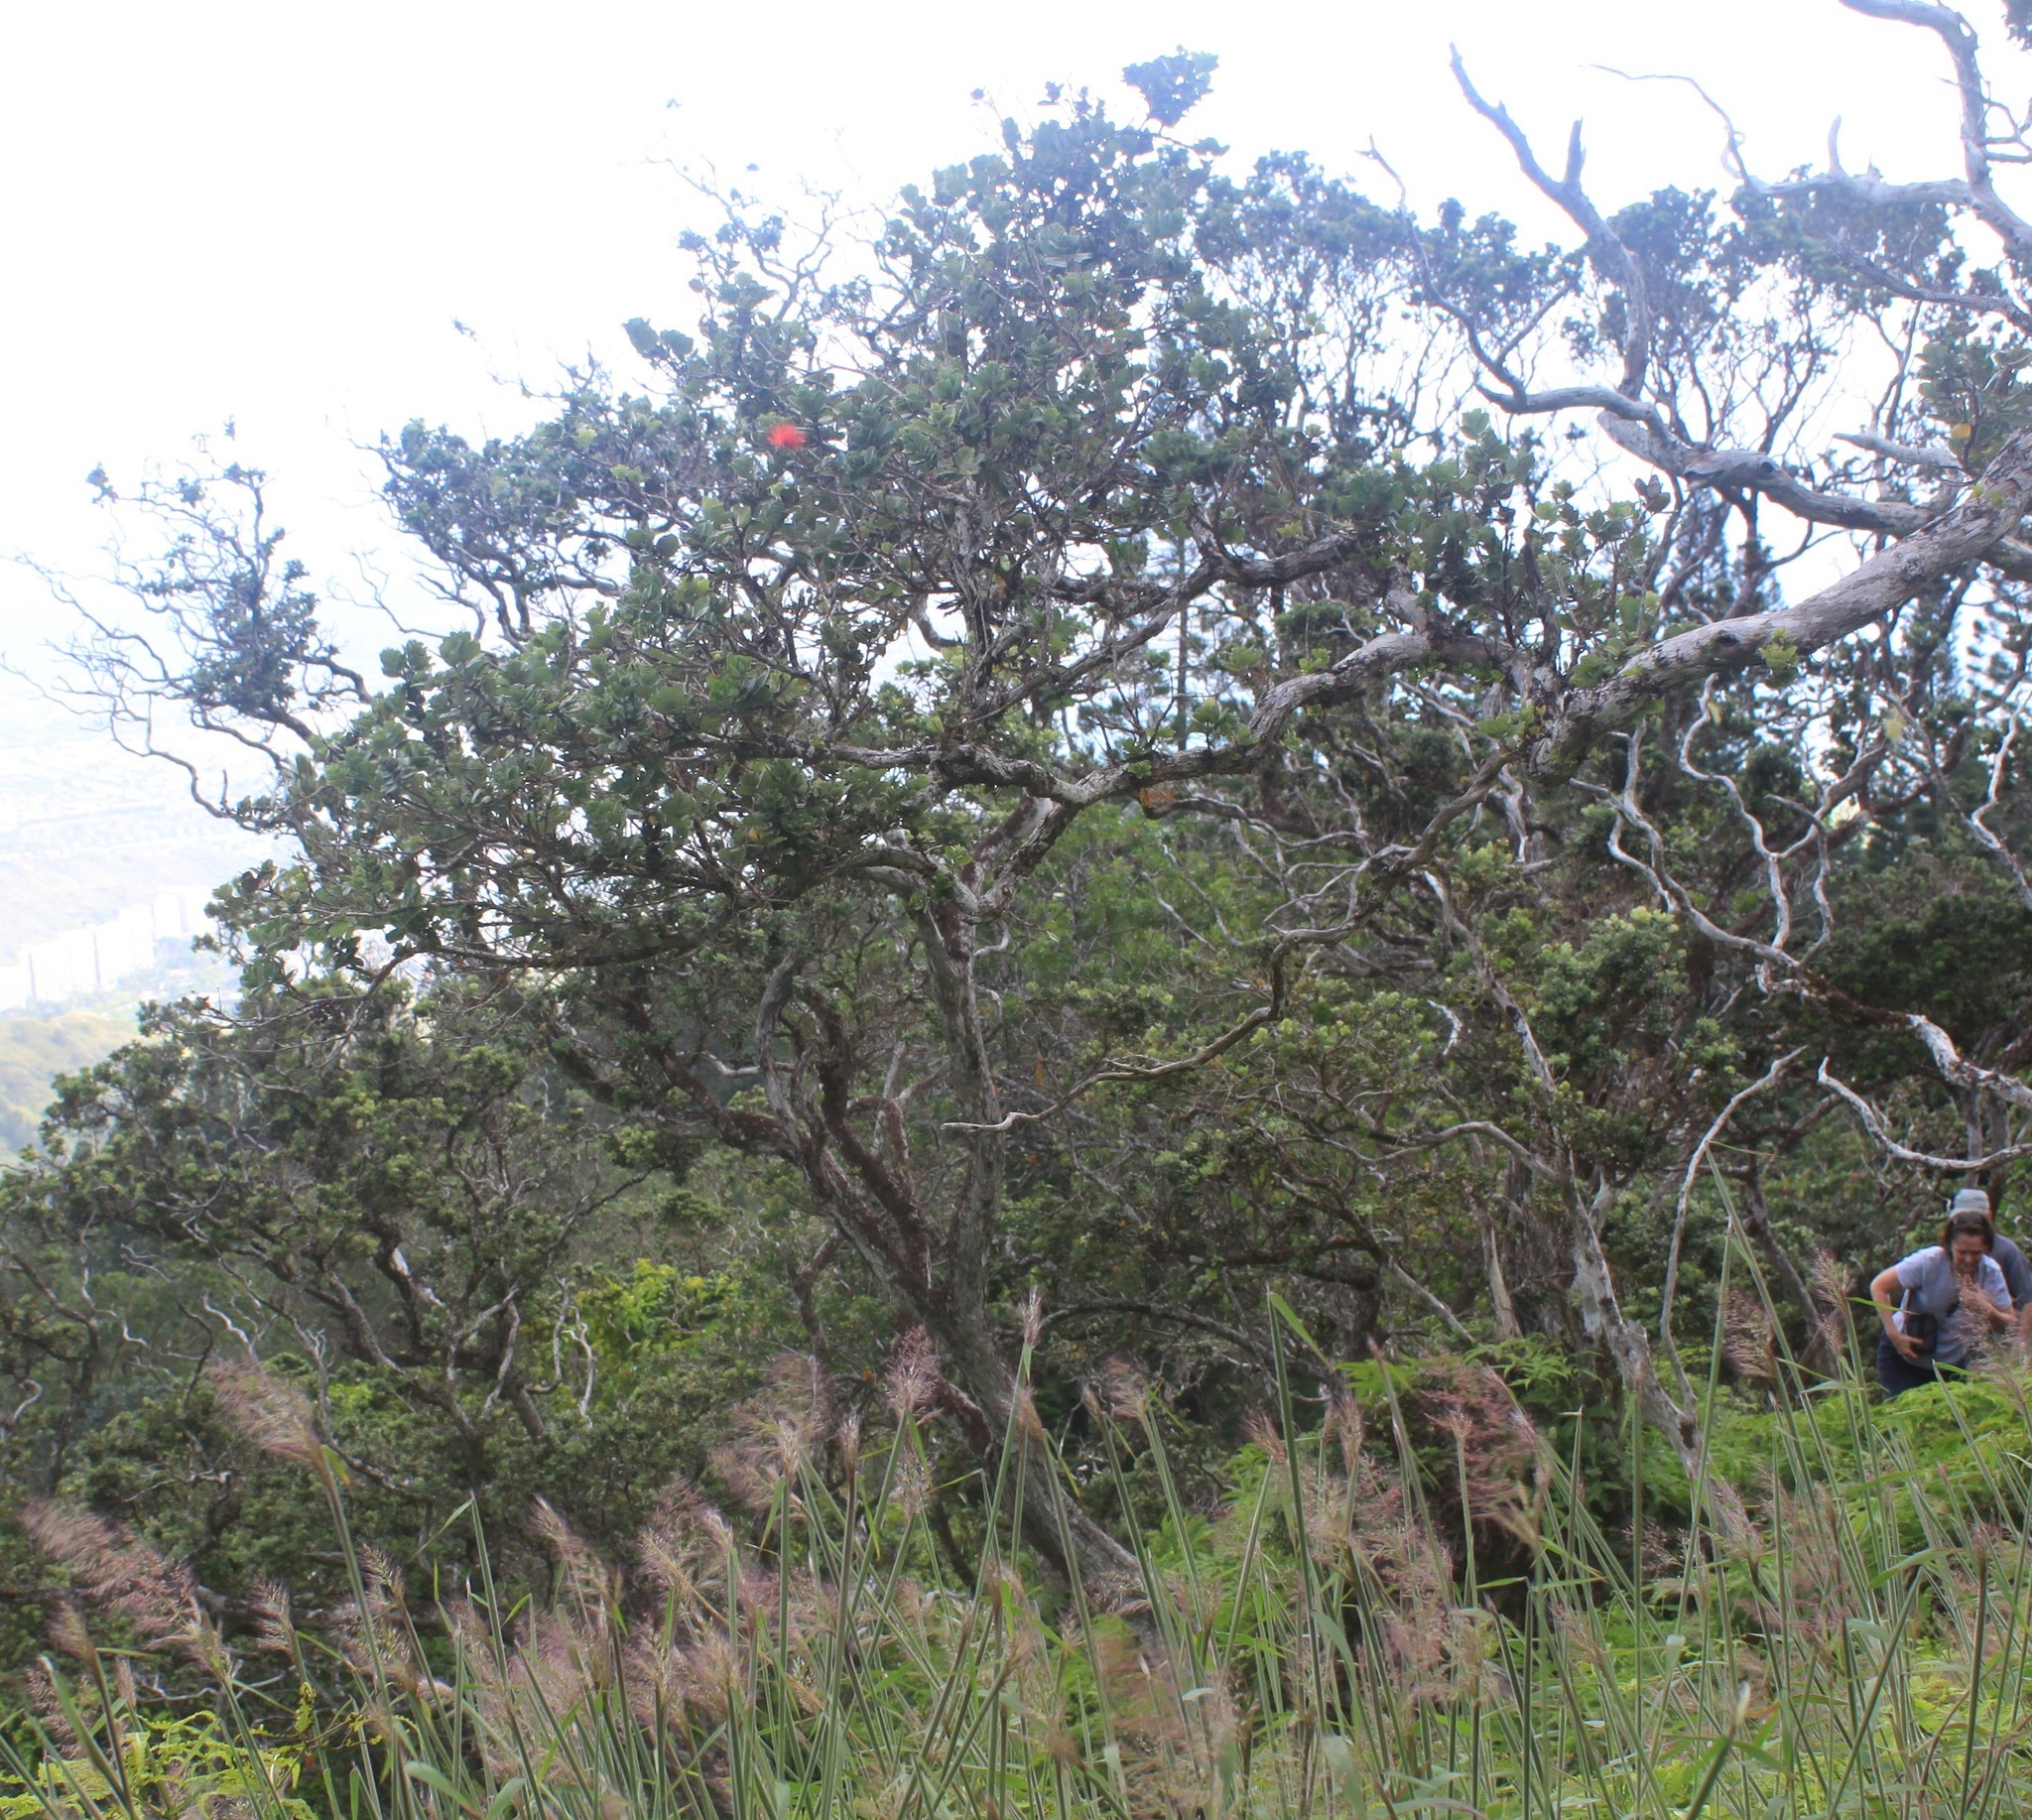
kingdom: Plantae
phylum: Tracheophyta
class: Magnoliopsida
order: Myrtales
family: Myrtaceae
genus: Metrosideros
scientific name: Metrosideros polymorpha
